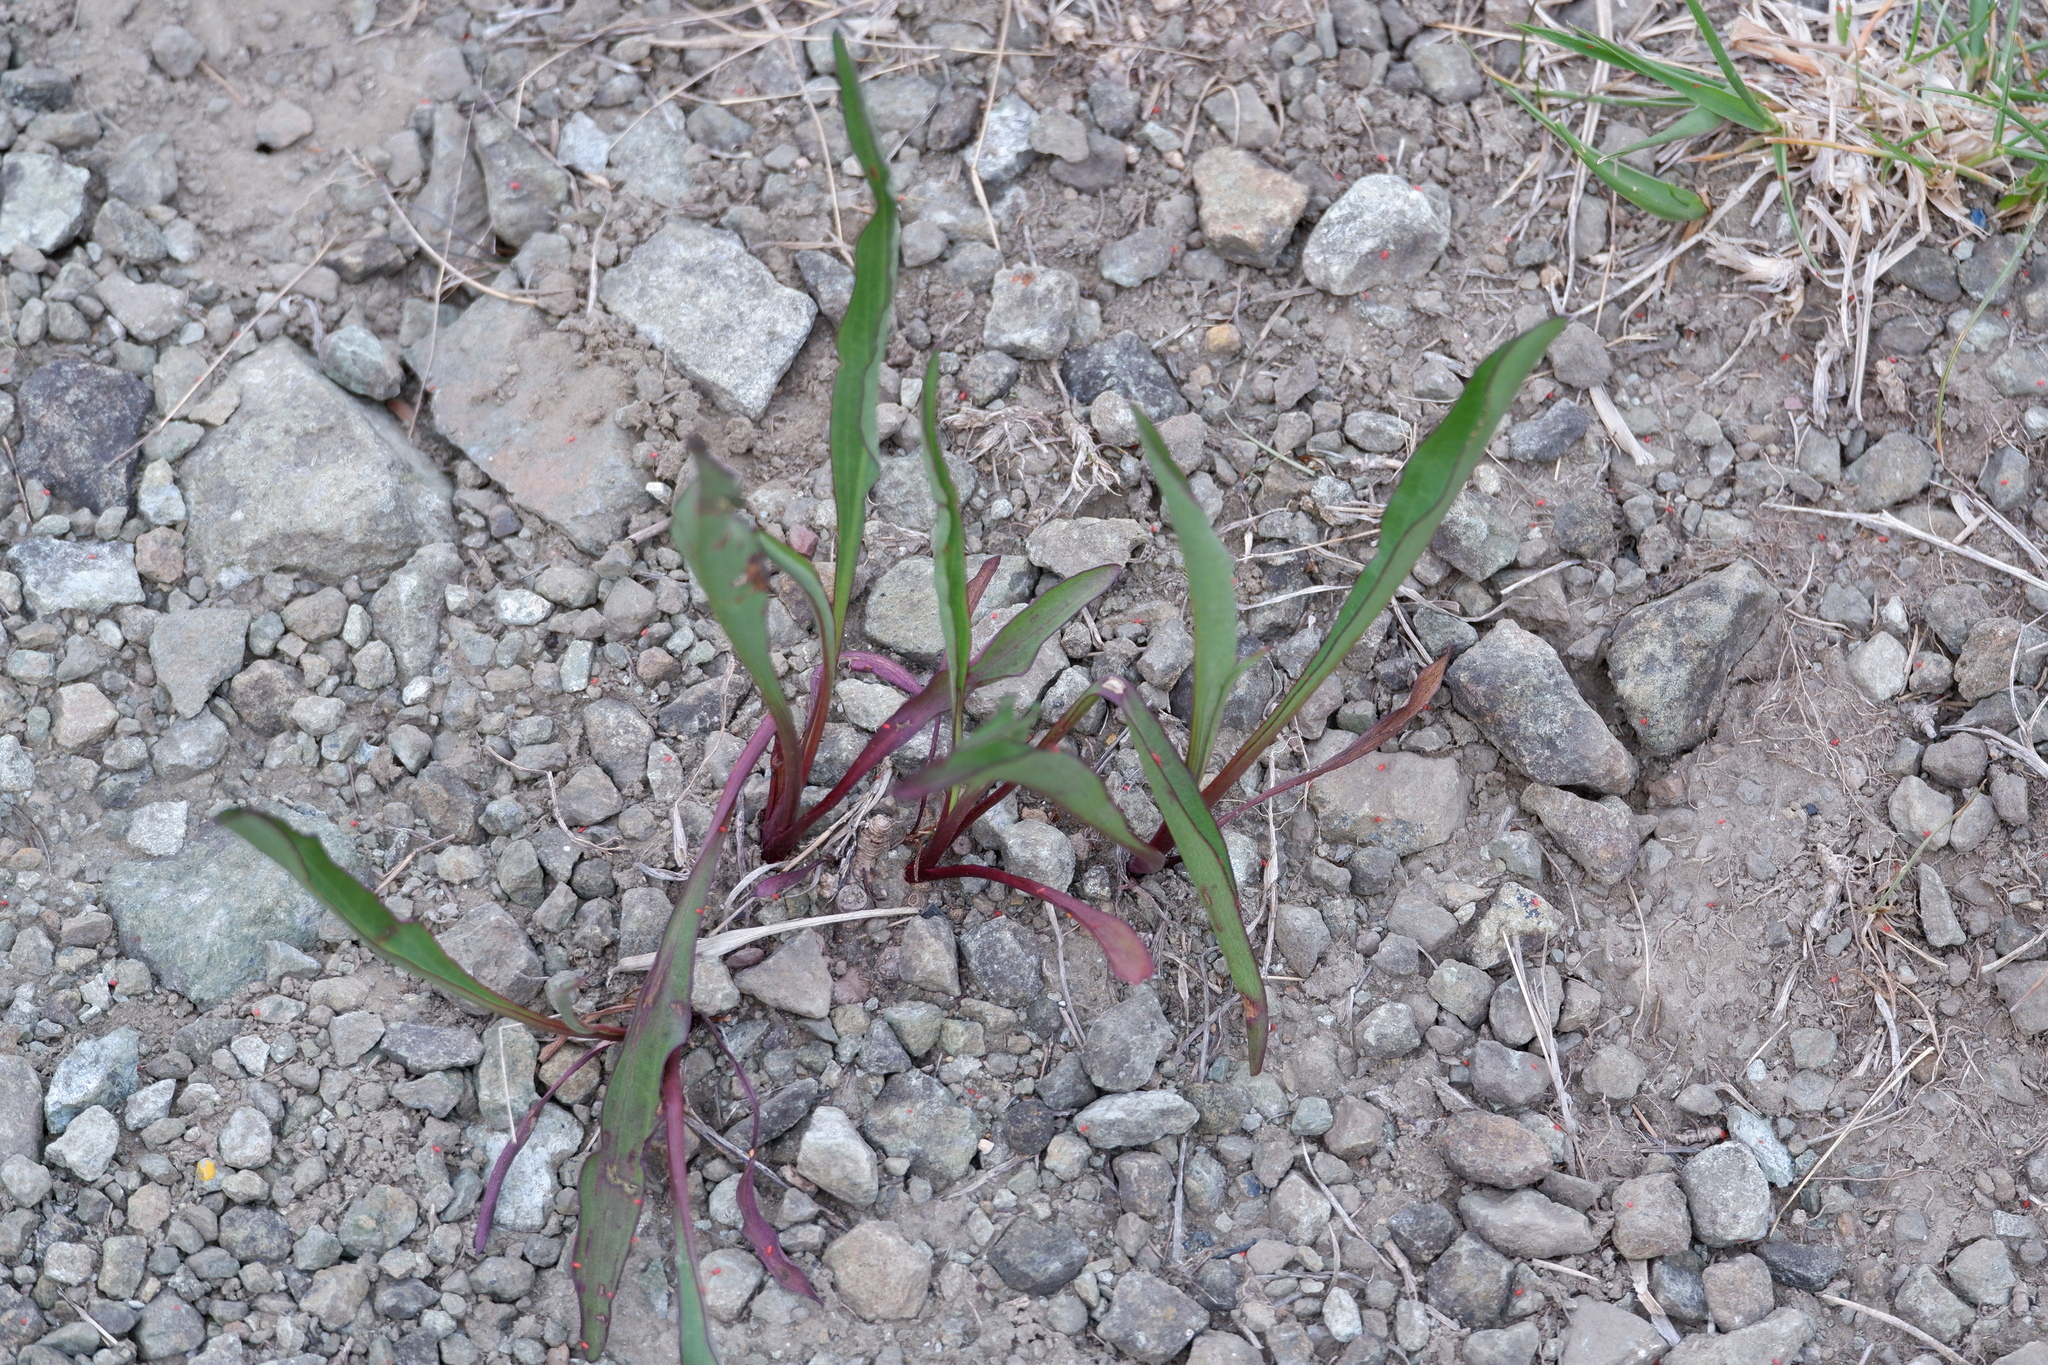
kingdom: Plantae
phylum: Tracheophyta
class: Magnoliopsida
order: Asterales
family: Asteraceae
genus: Solidago
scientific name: Solidago sempervirens
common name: Salt-marsh goldenrod
